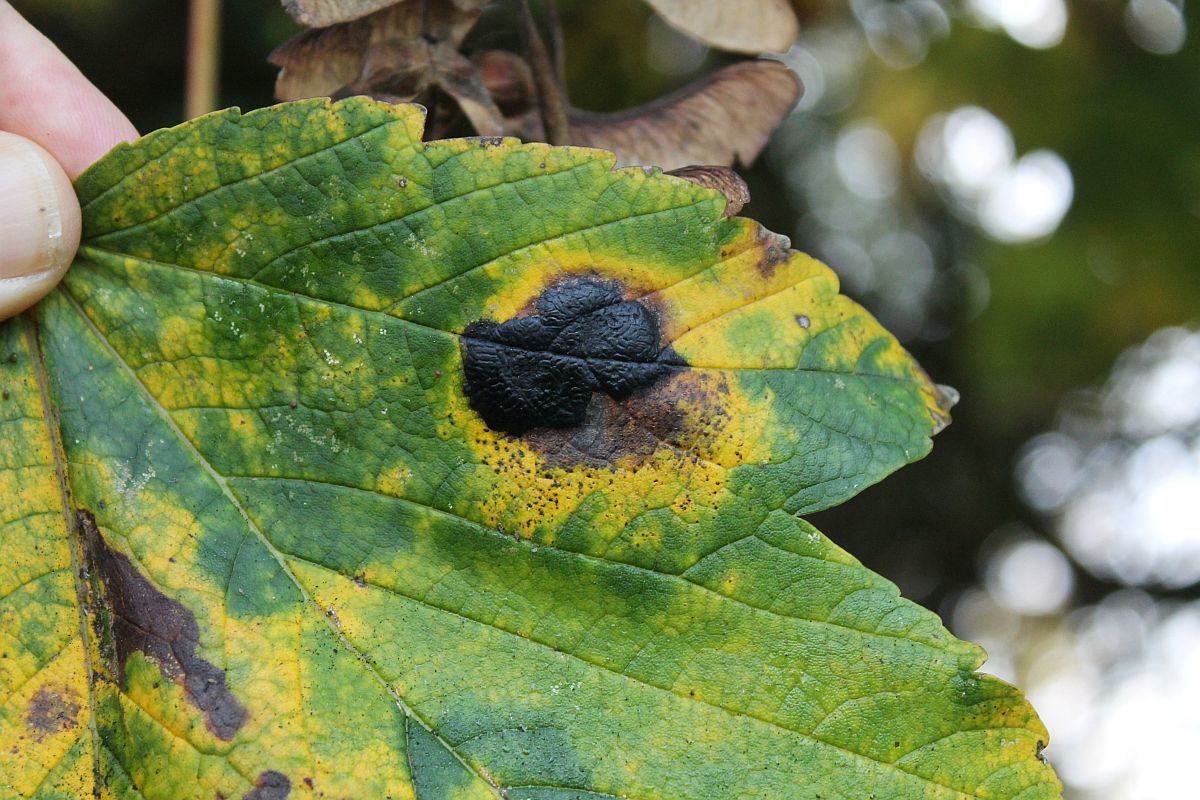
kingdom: Fungi
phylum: Ascomycota
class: Leotiomycetes
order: Rhytismatales
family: Rhytismataceae
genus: Rhytisma
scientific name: Rhytisma acerinum
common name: European tar spot
